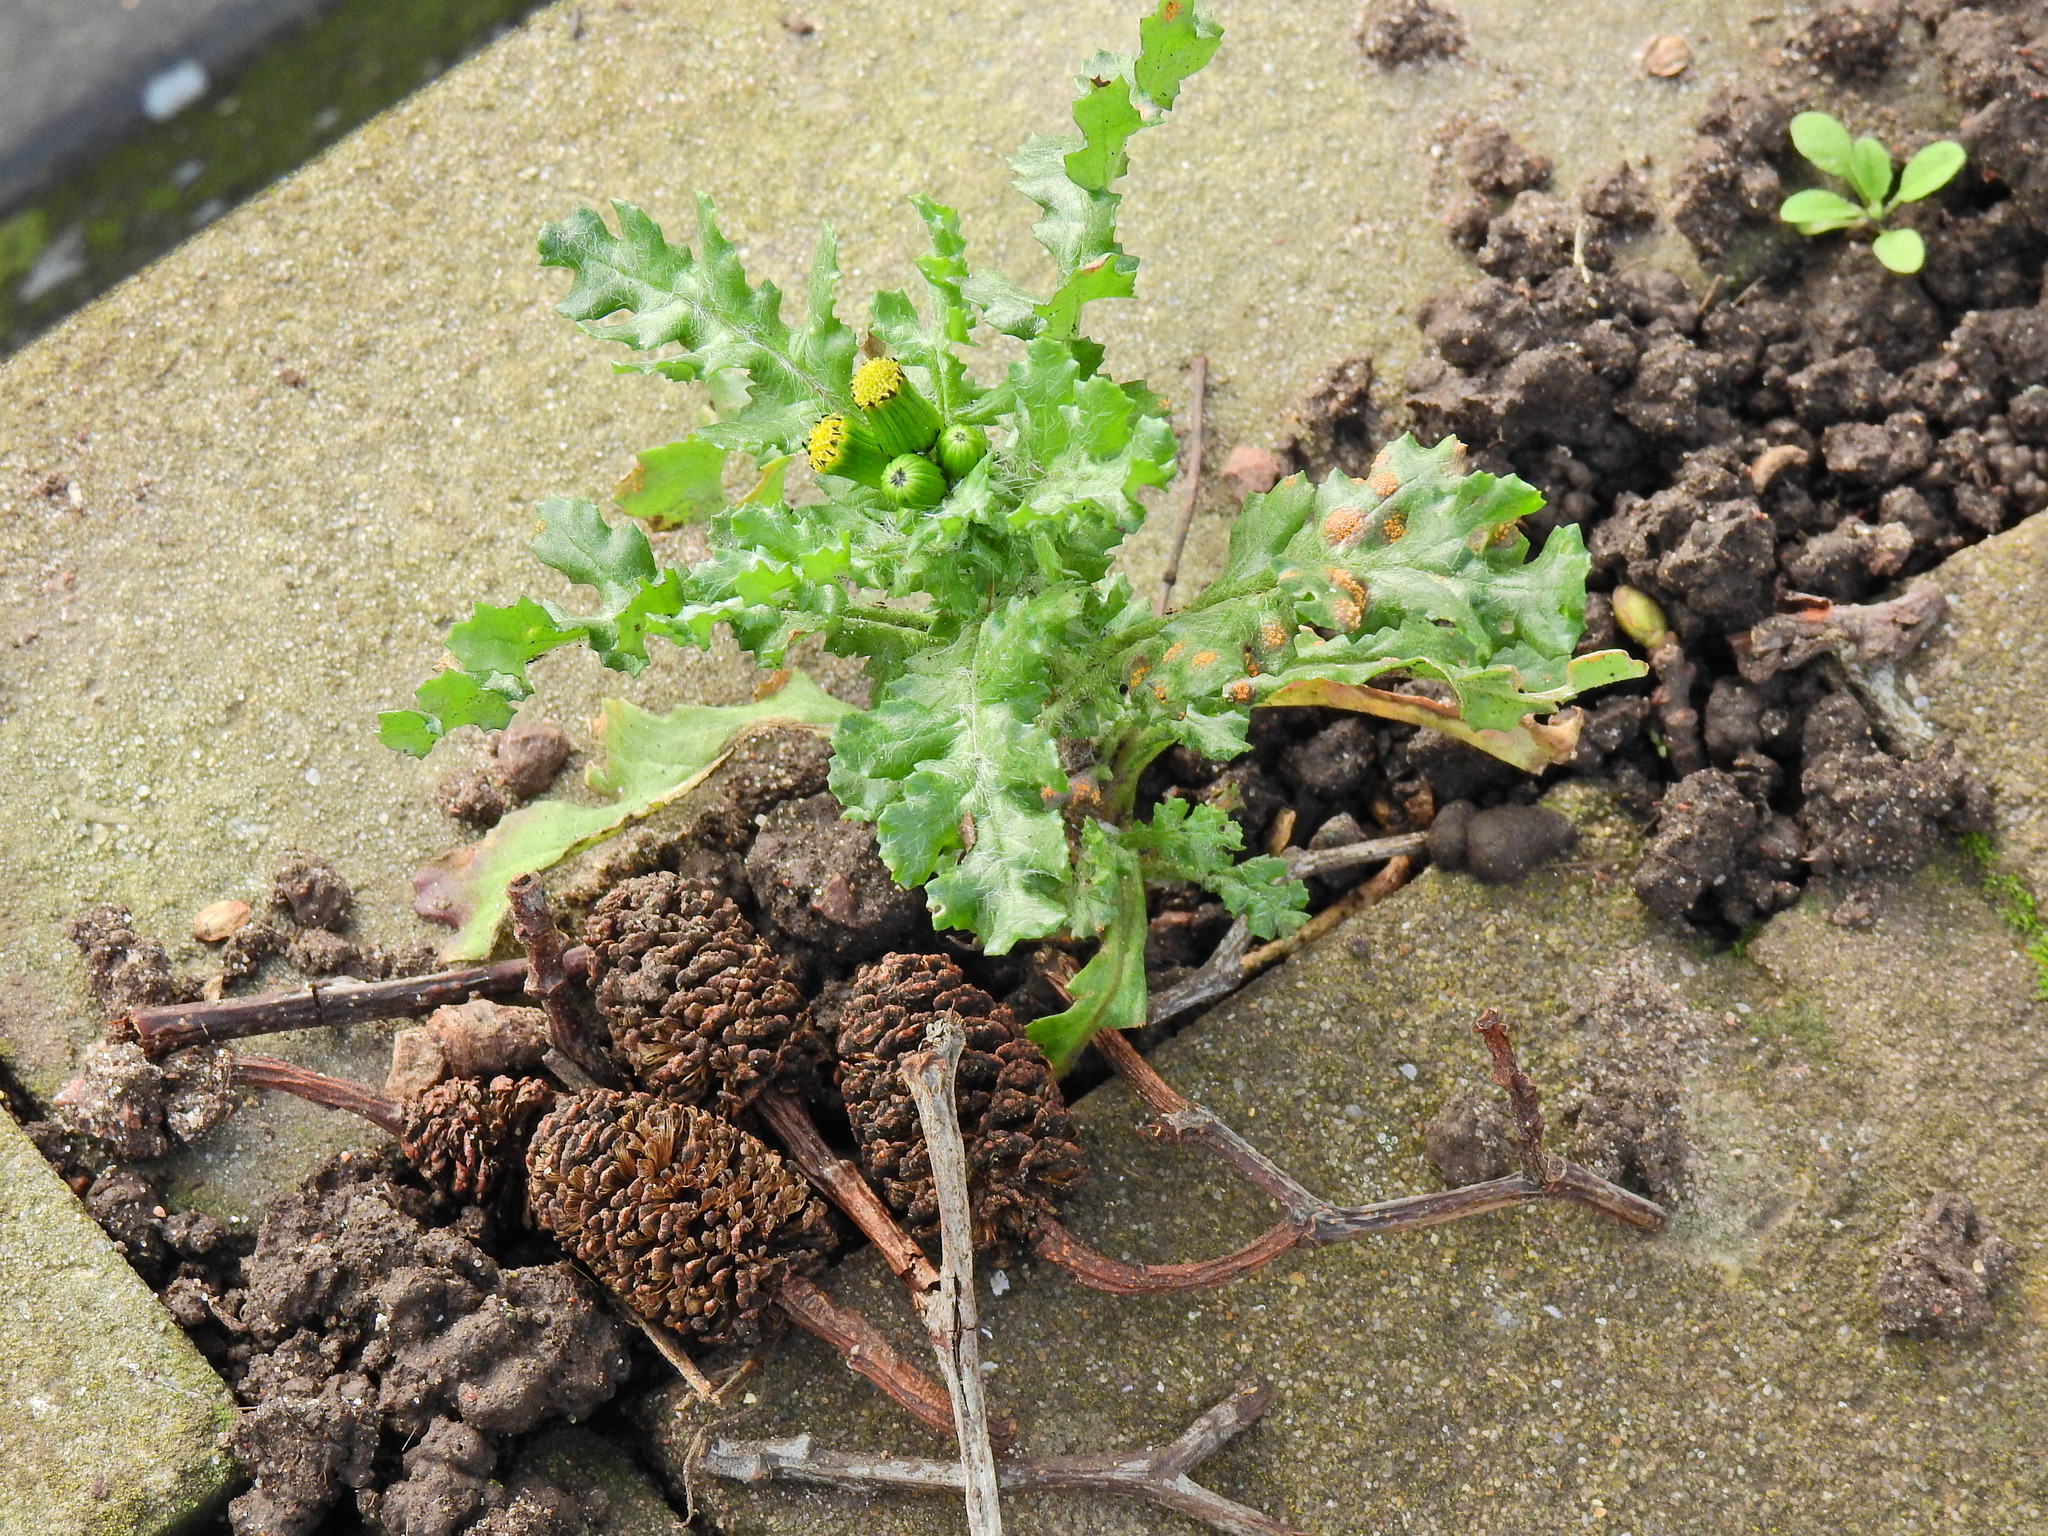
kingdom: Plantae
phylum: Tracheophyta
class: Magnoliopsida
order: Asterales
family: Asteraceae
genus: Senecio
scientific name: Senecio vulgaris
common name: Old-man-in-the-spring
